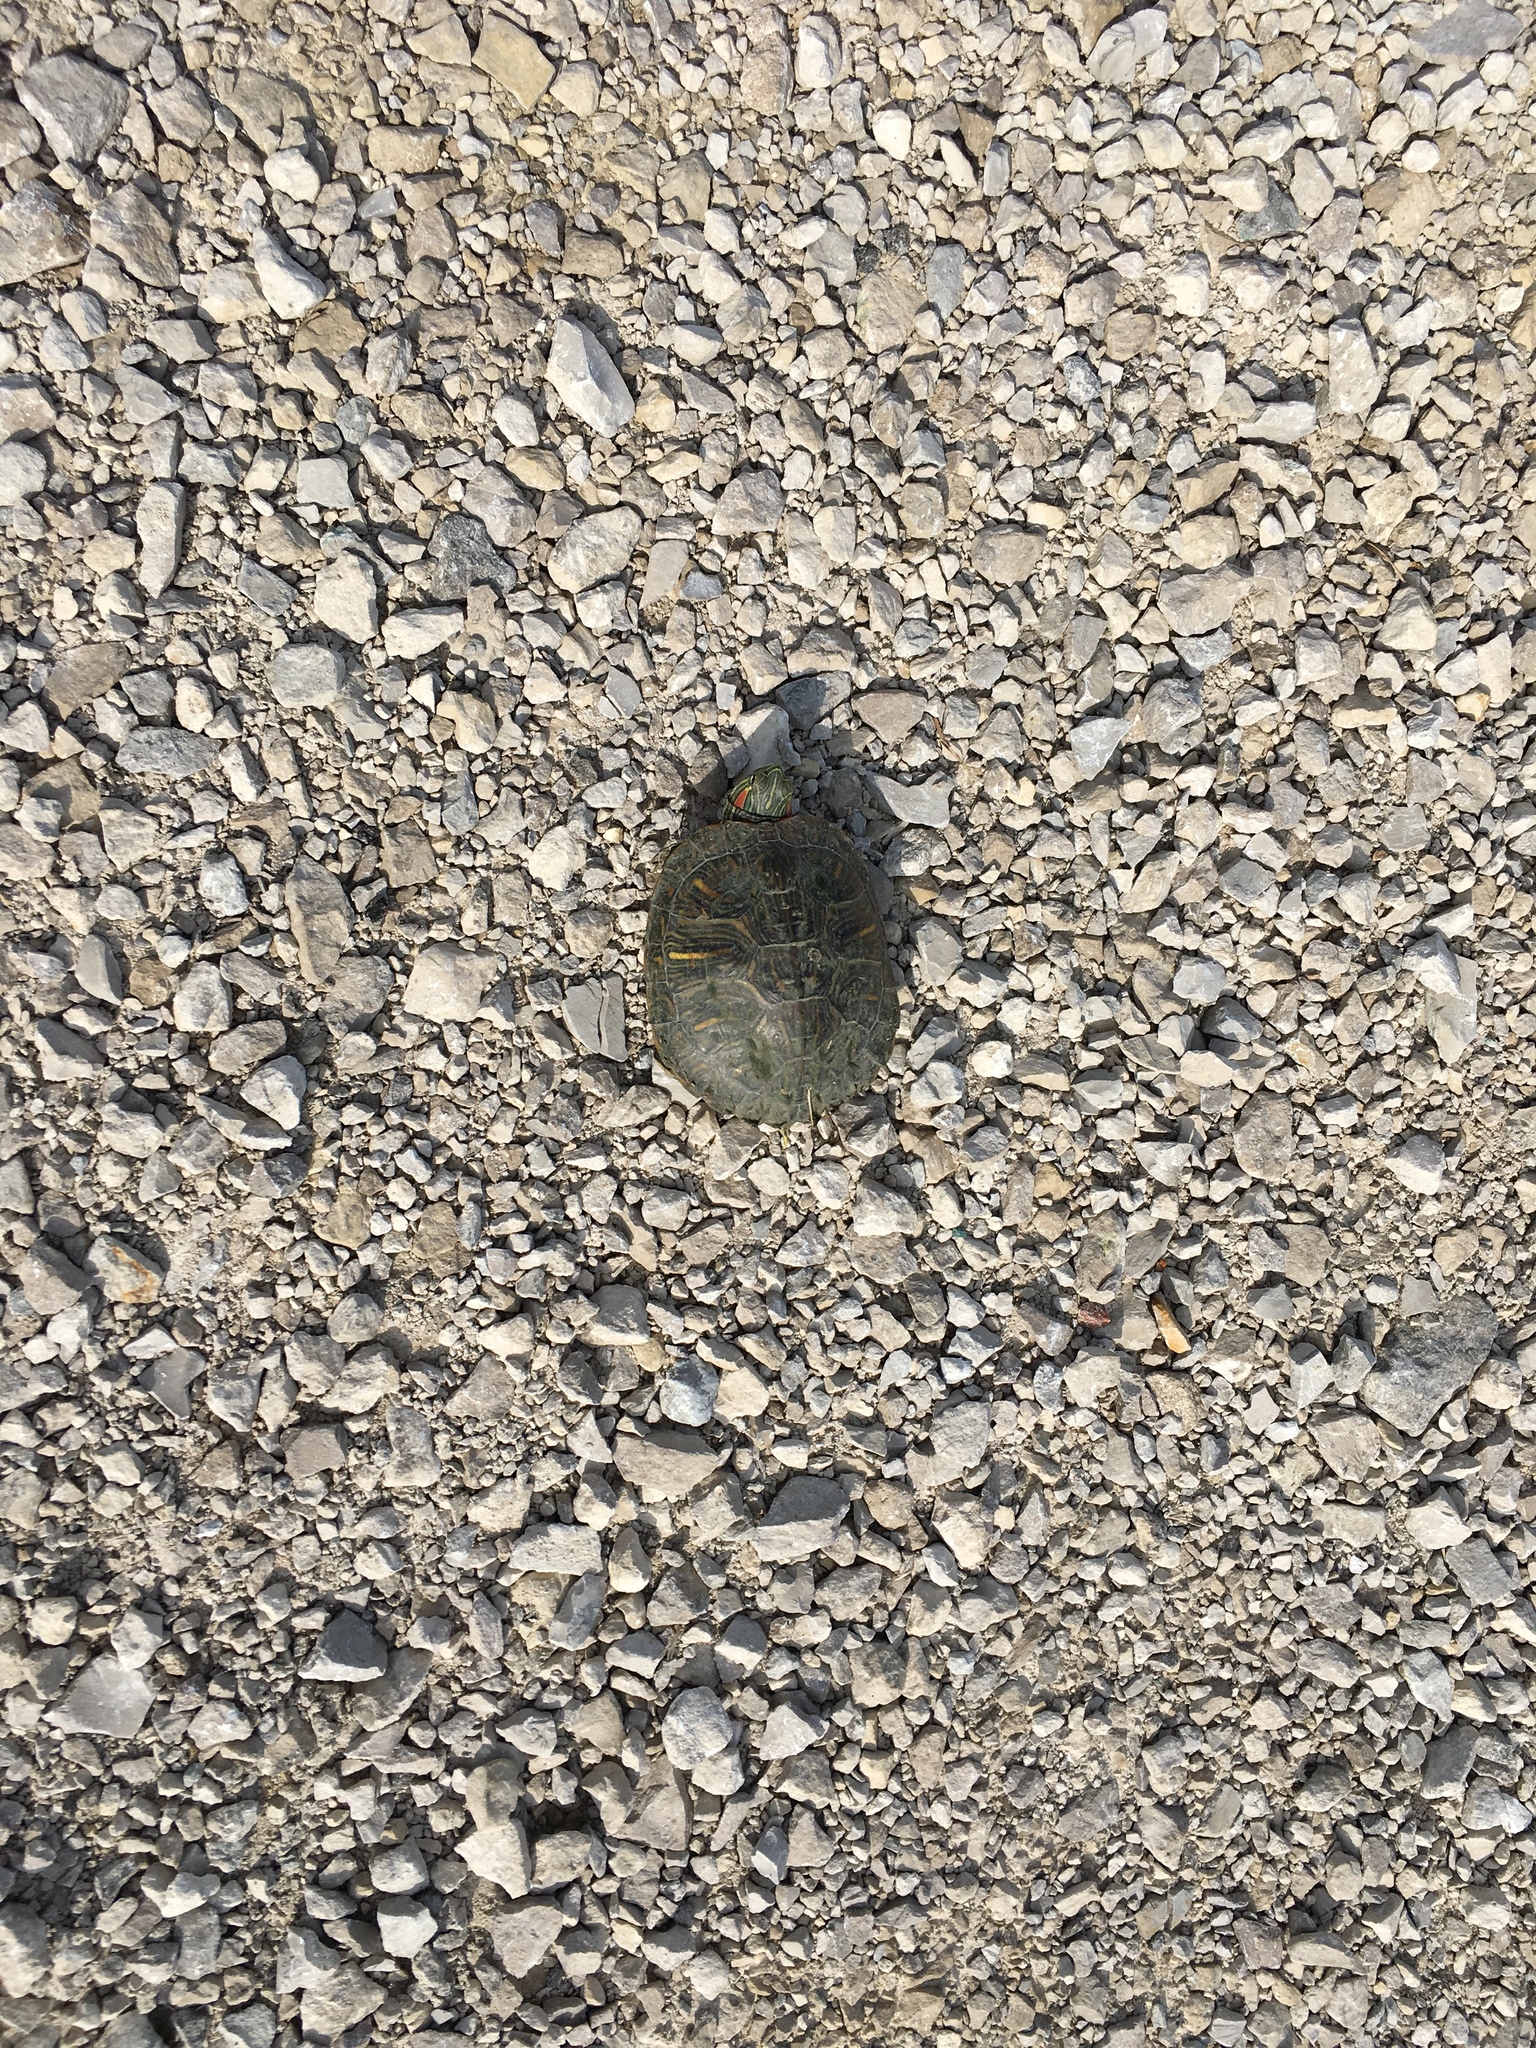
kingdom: Animalia
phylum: Chordata
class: Testudines
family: Emydidae
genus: Trachemys
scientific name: Trachemys scripta
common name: Slider
